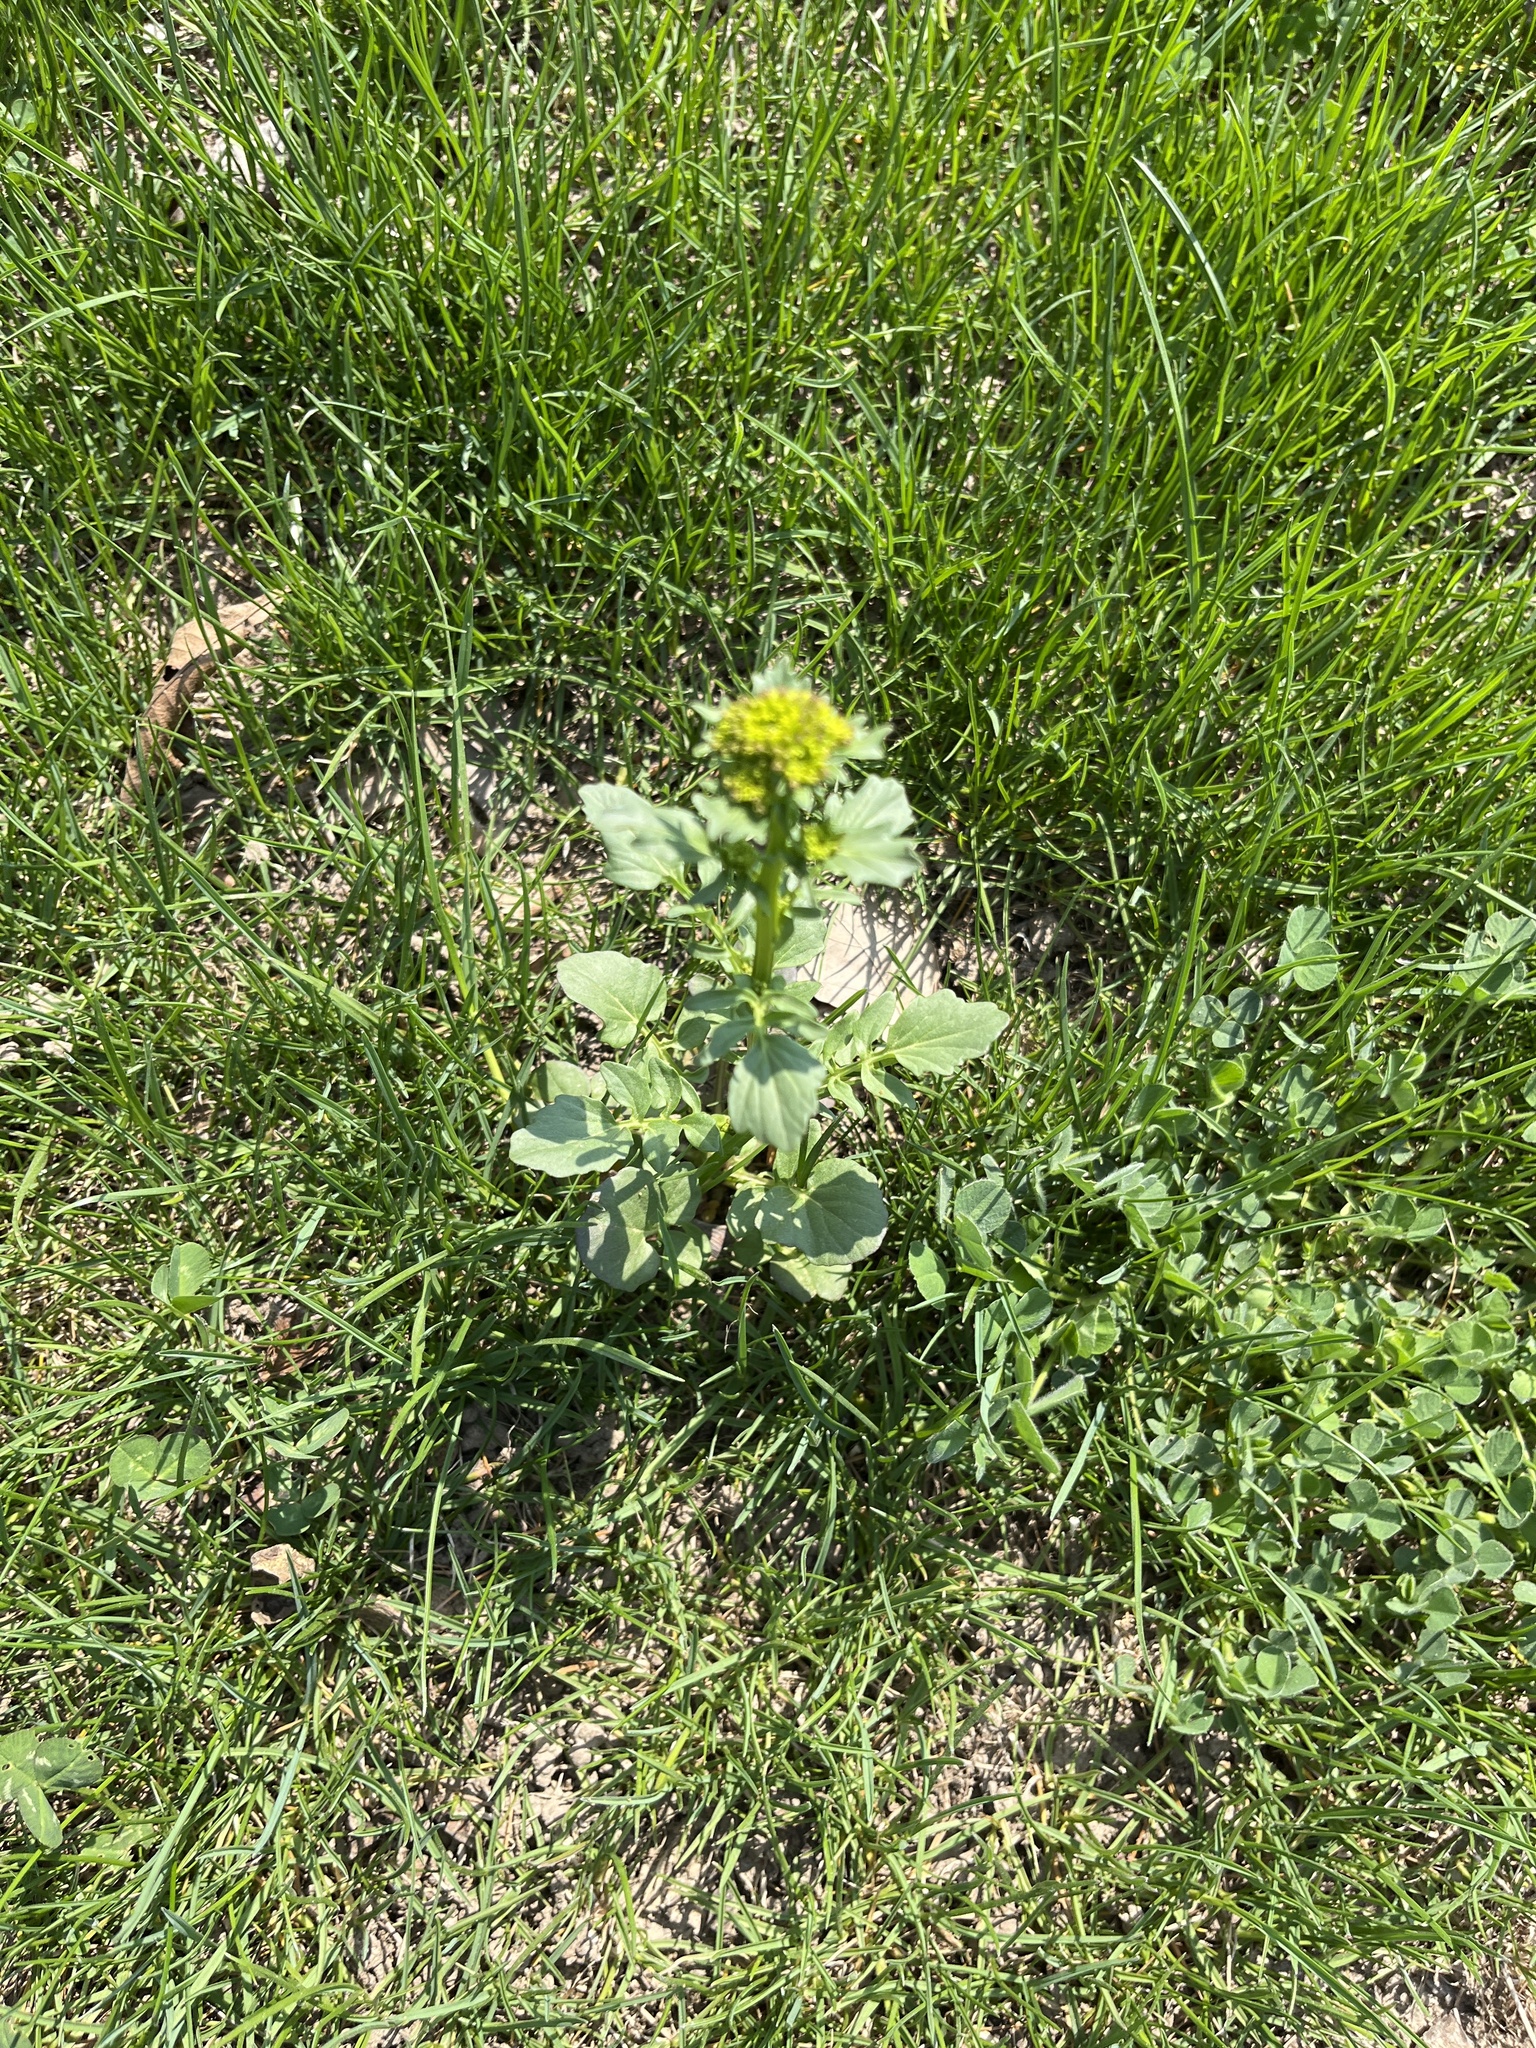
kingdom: Plantae
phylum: Tracheophyta
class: Magnoliopsida
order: Brassicales
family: Brassicaceae
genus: Barbarea
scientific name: Barbarea vulgaris
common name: Cressy-greens
